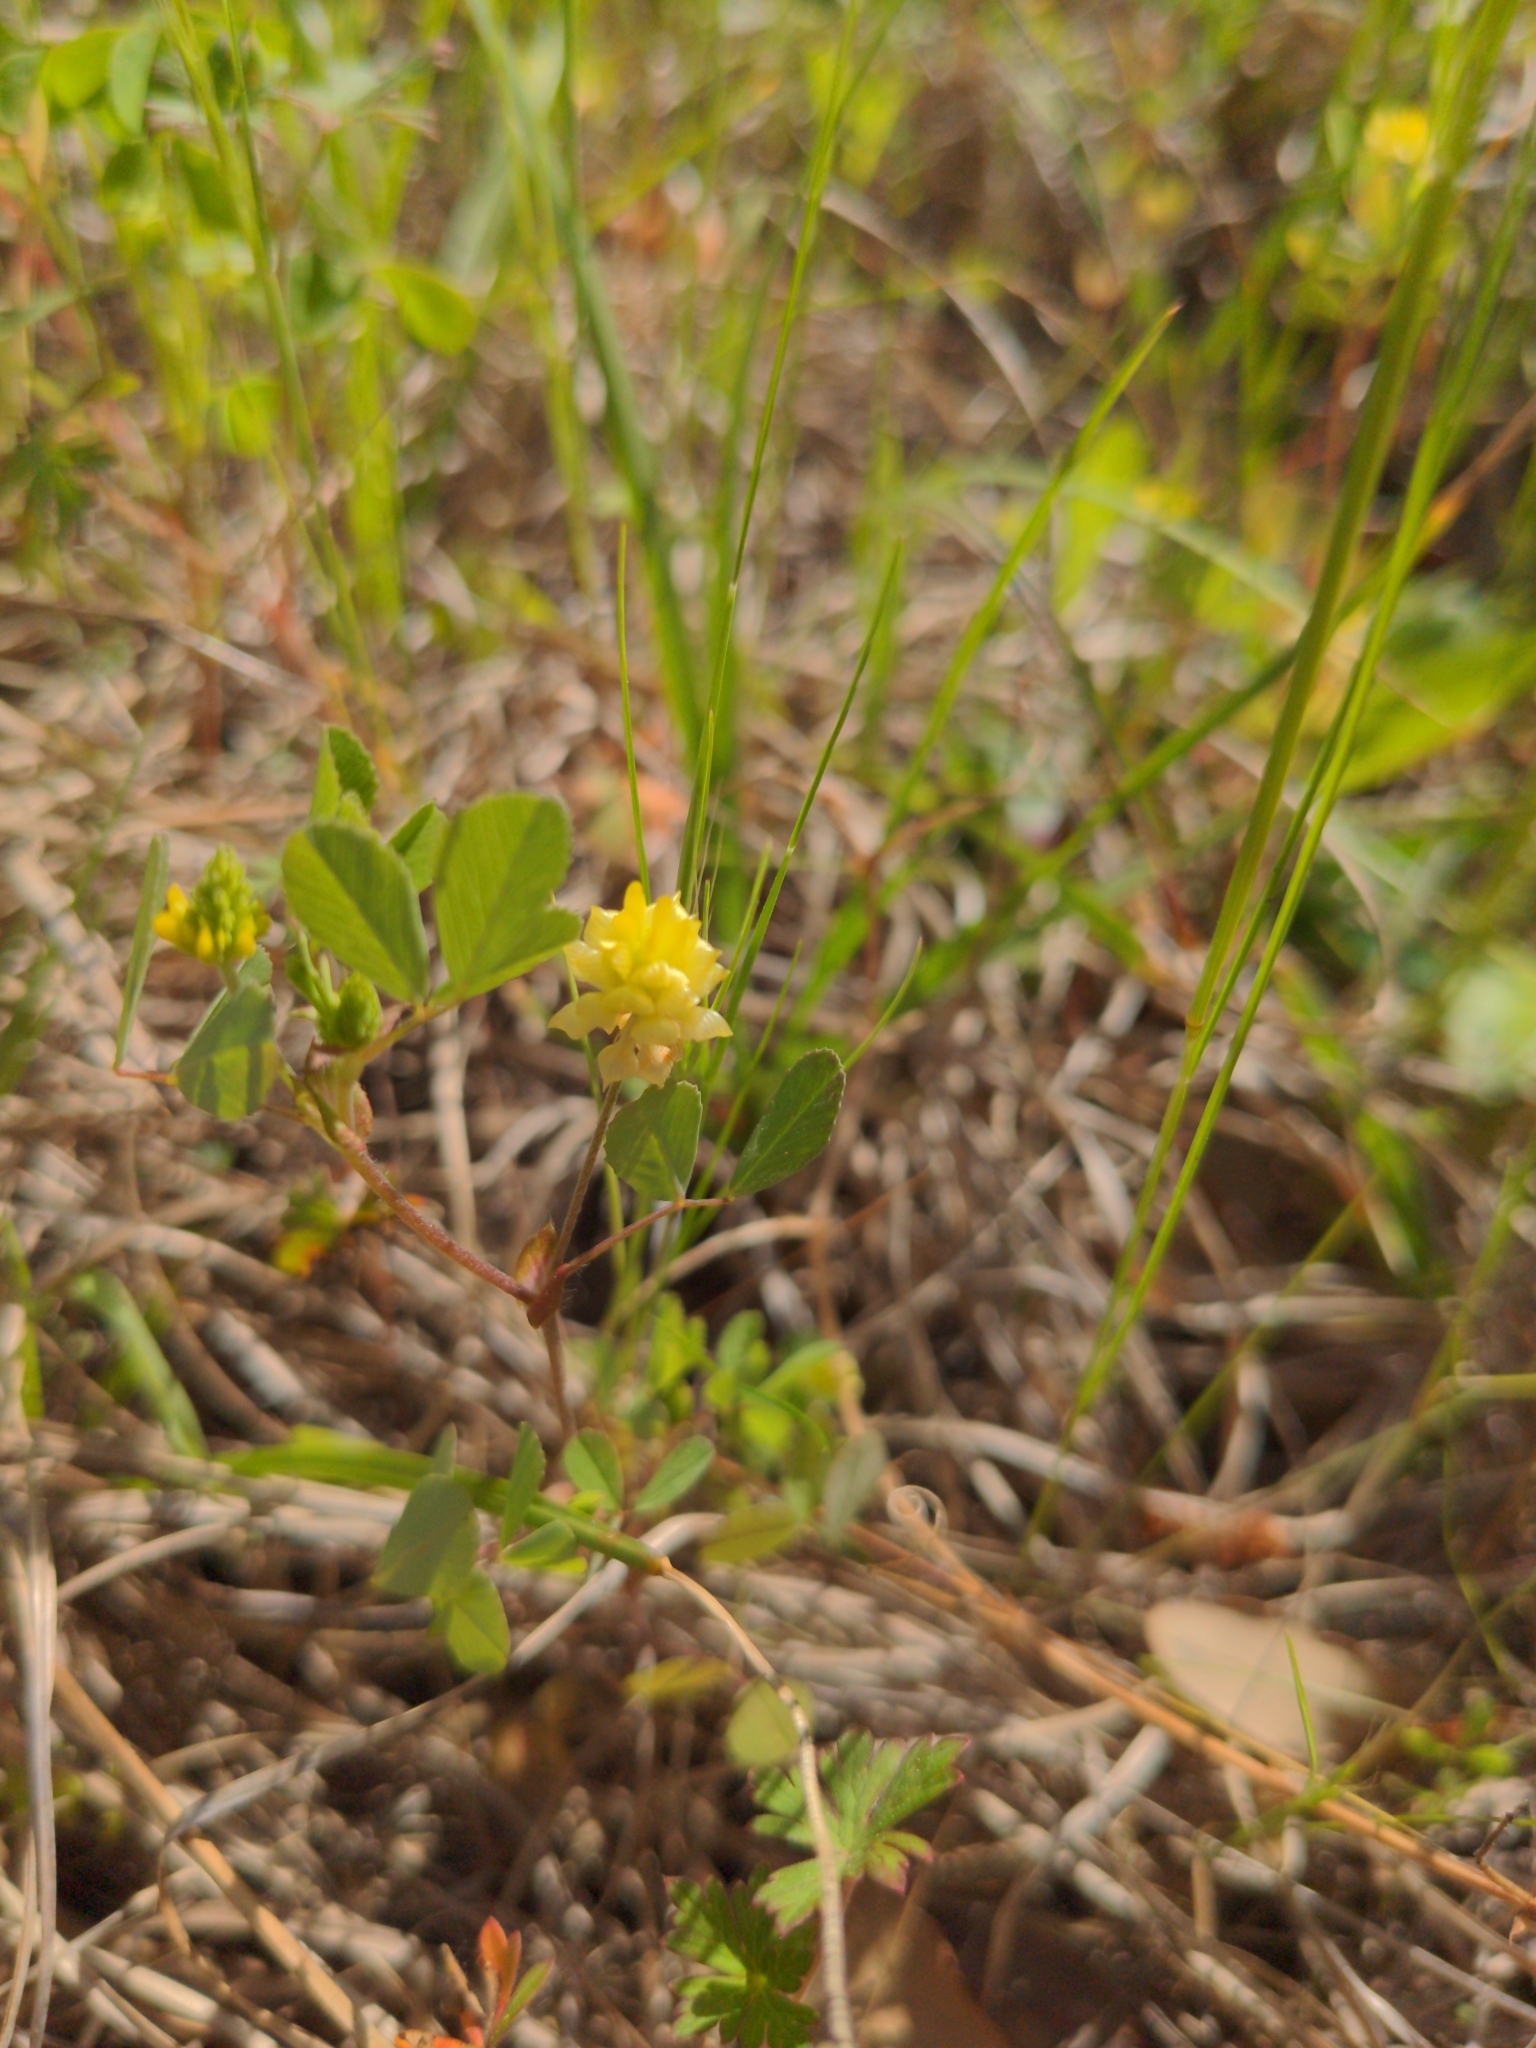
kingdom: Plantae
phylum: Tracheophyta
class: Magnoliopsida
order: Fabales
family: Fabaceae
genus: Trifolium
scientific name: Trifolium campestre
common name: Field clover
